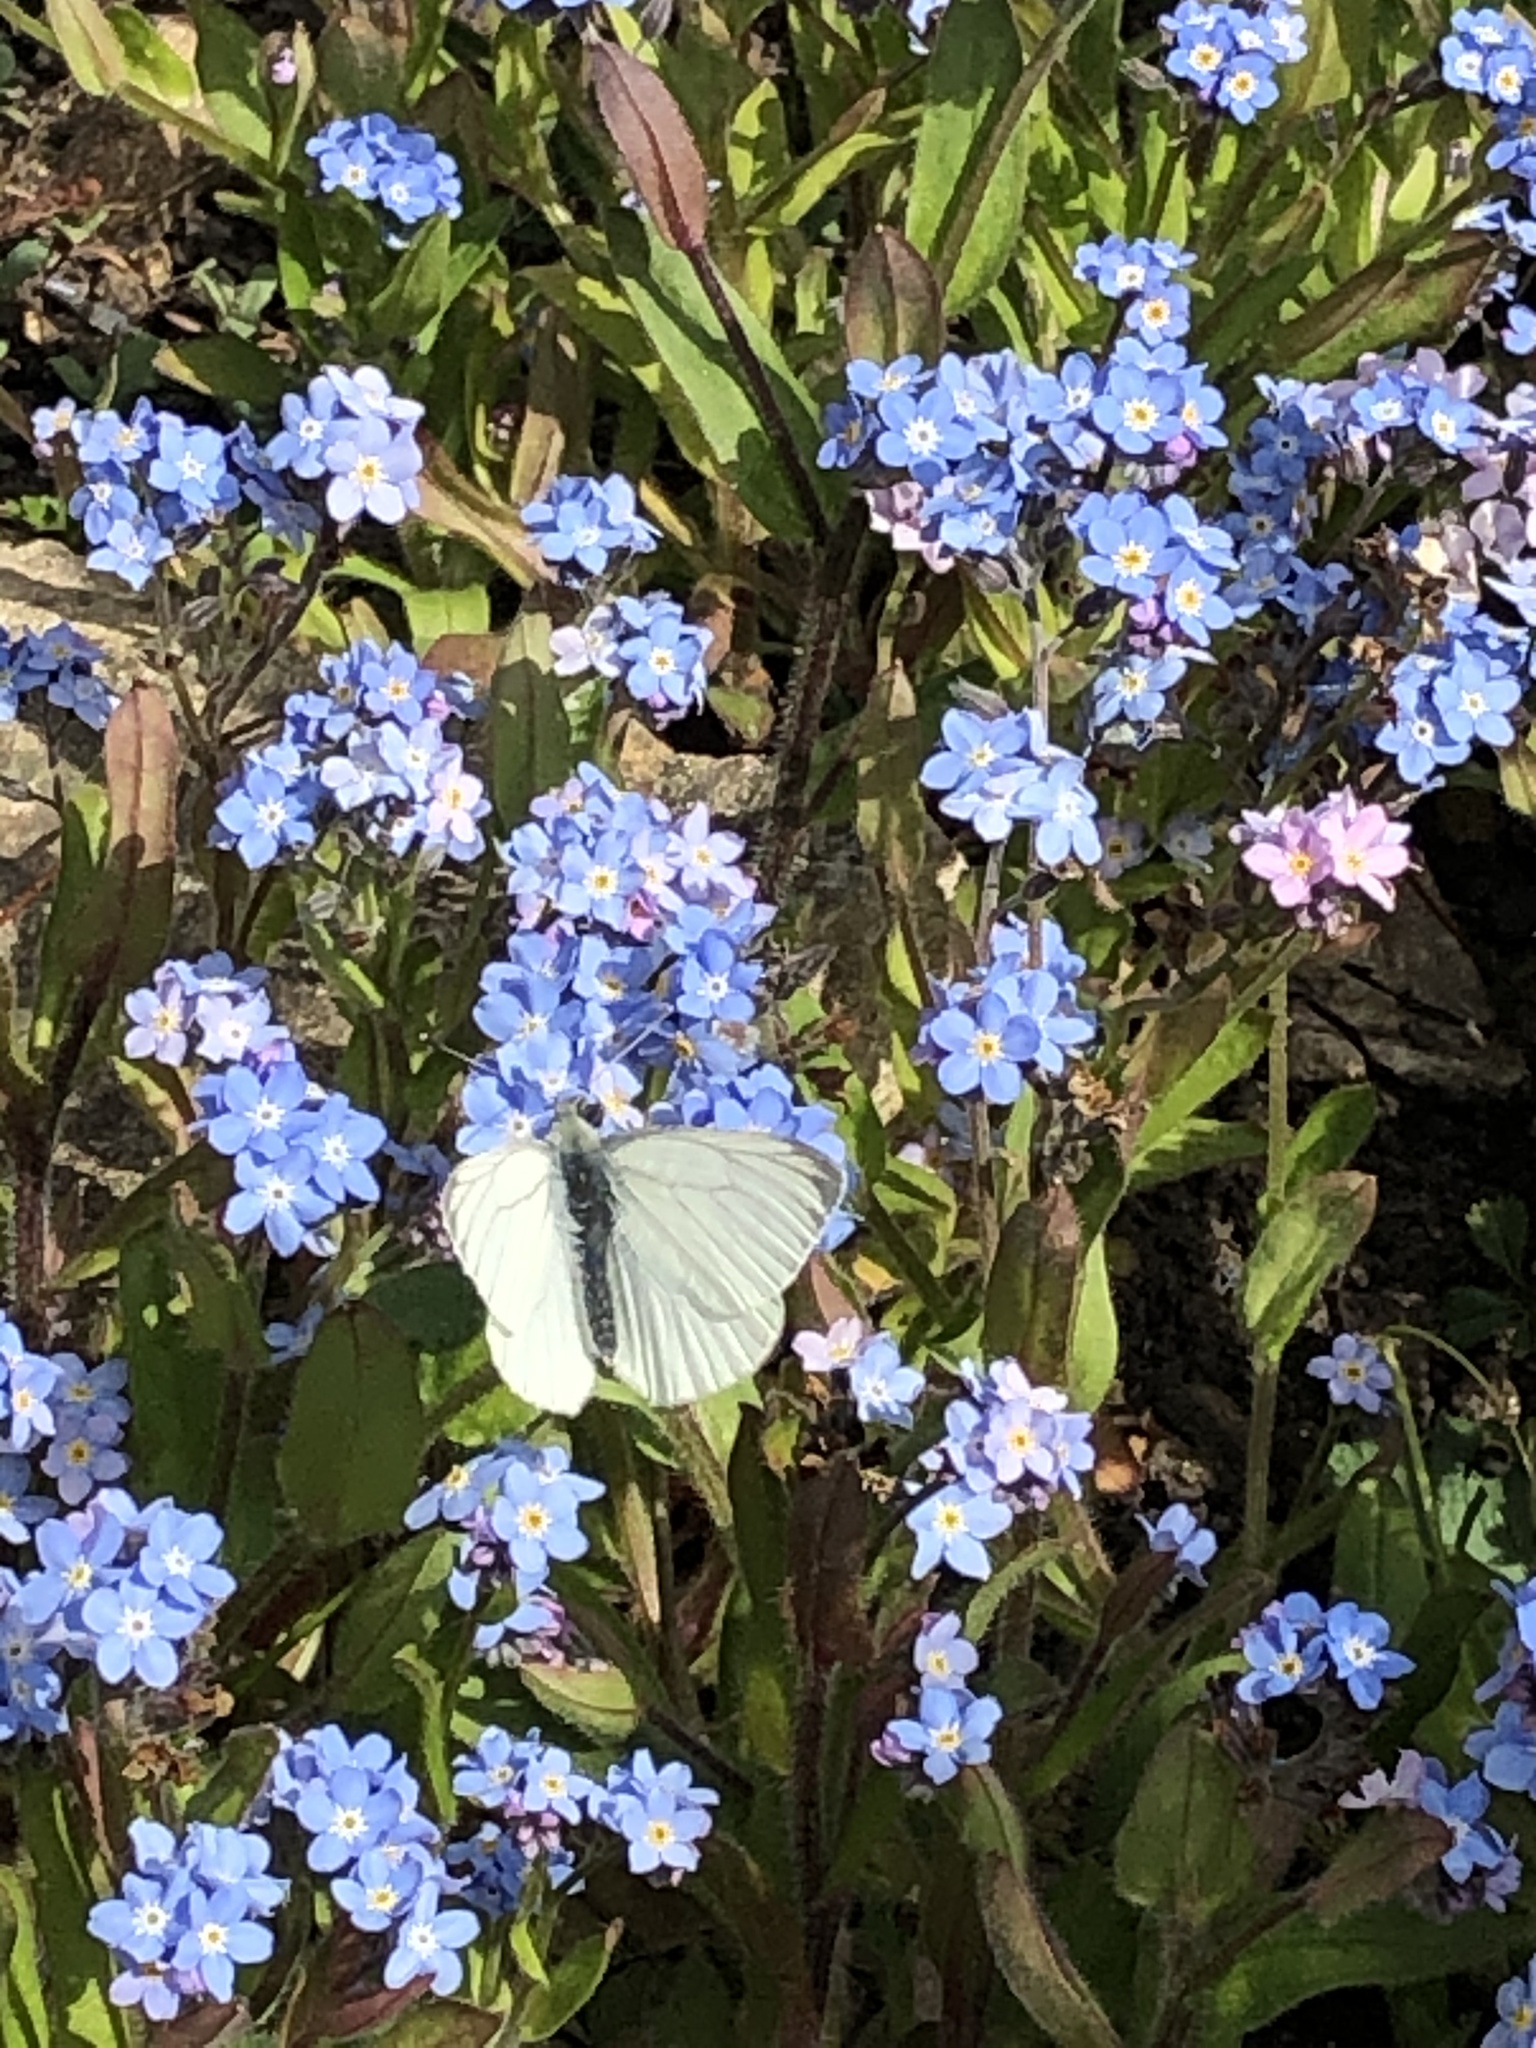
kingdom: Animalia
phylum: Arthropoda
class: Insecta
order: Lepidoptera
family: Pieridae
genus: Pieris
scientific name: Pieris napi
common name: Green-veined white
